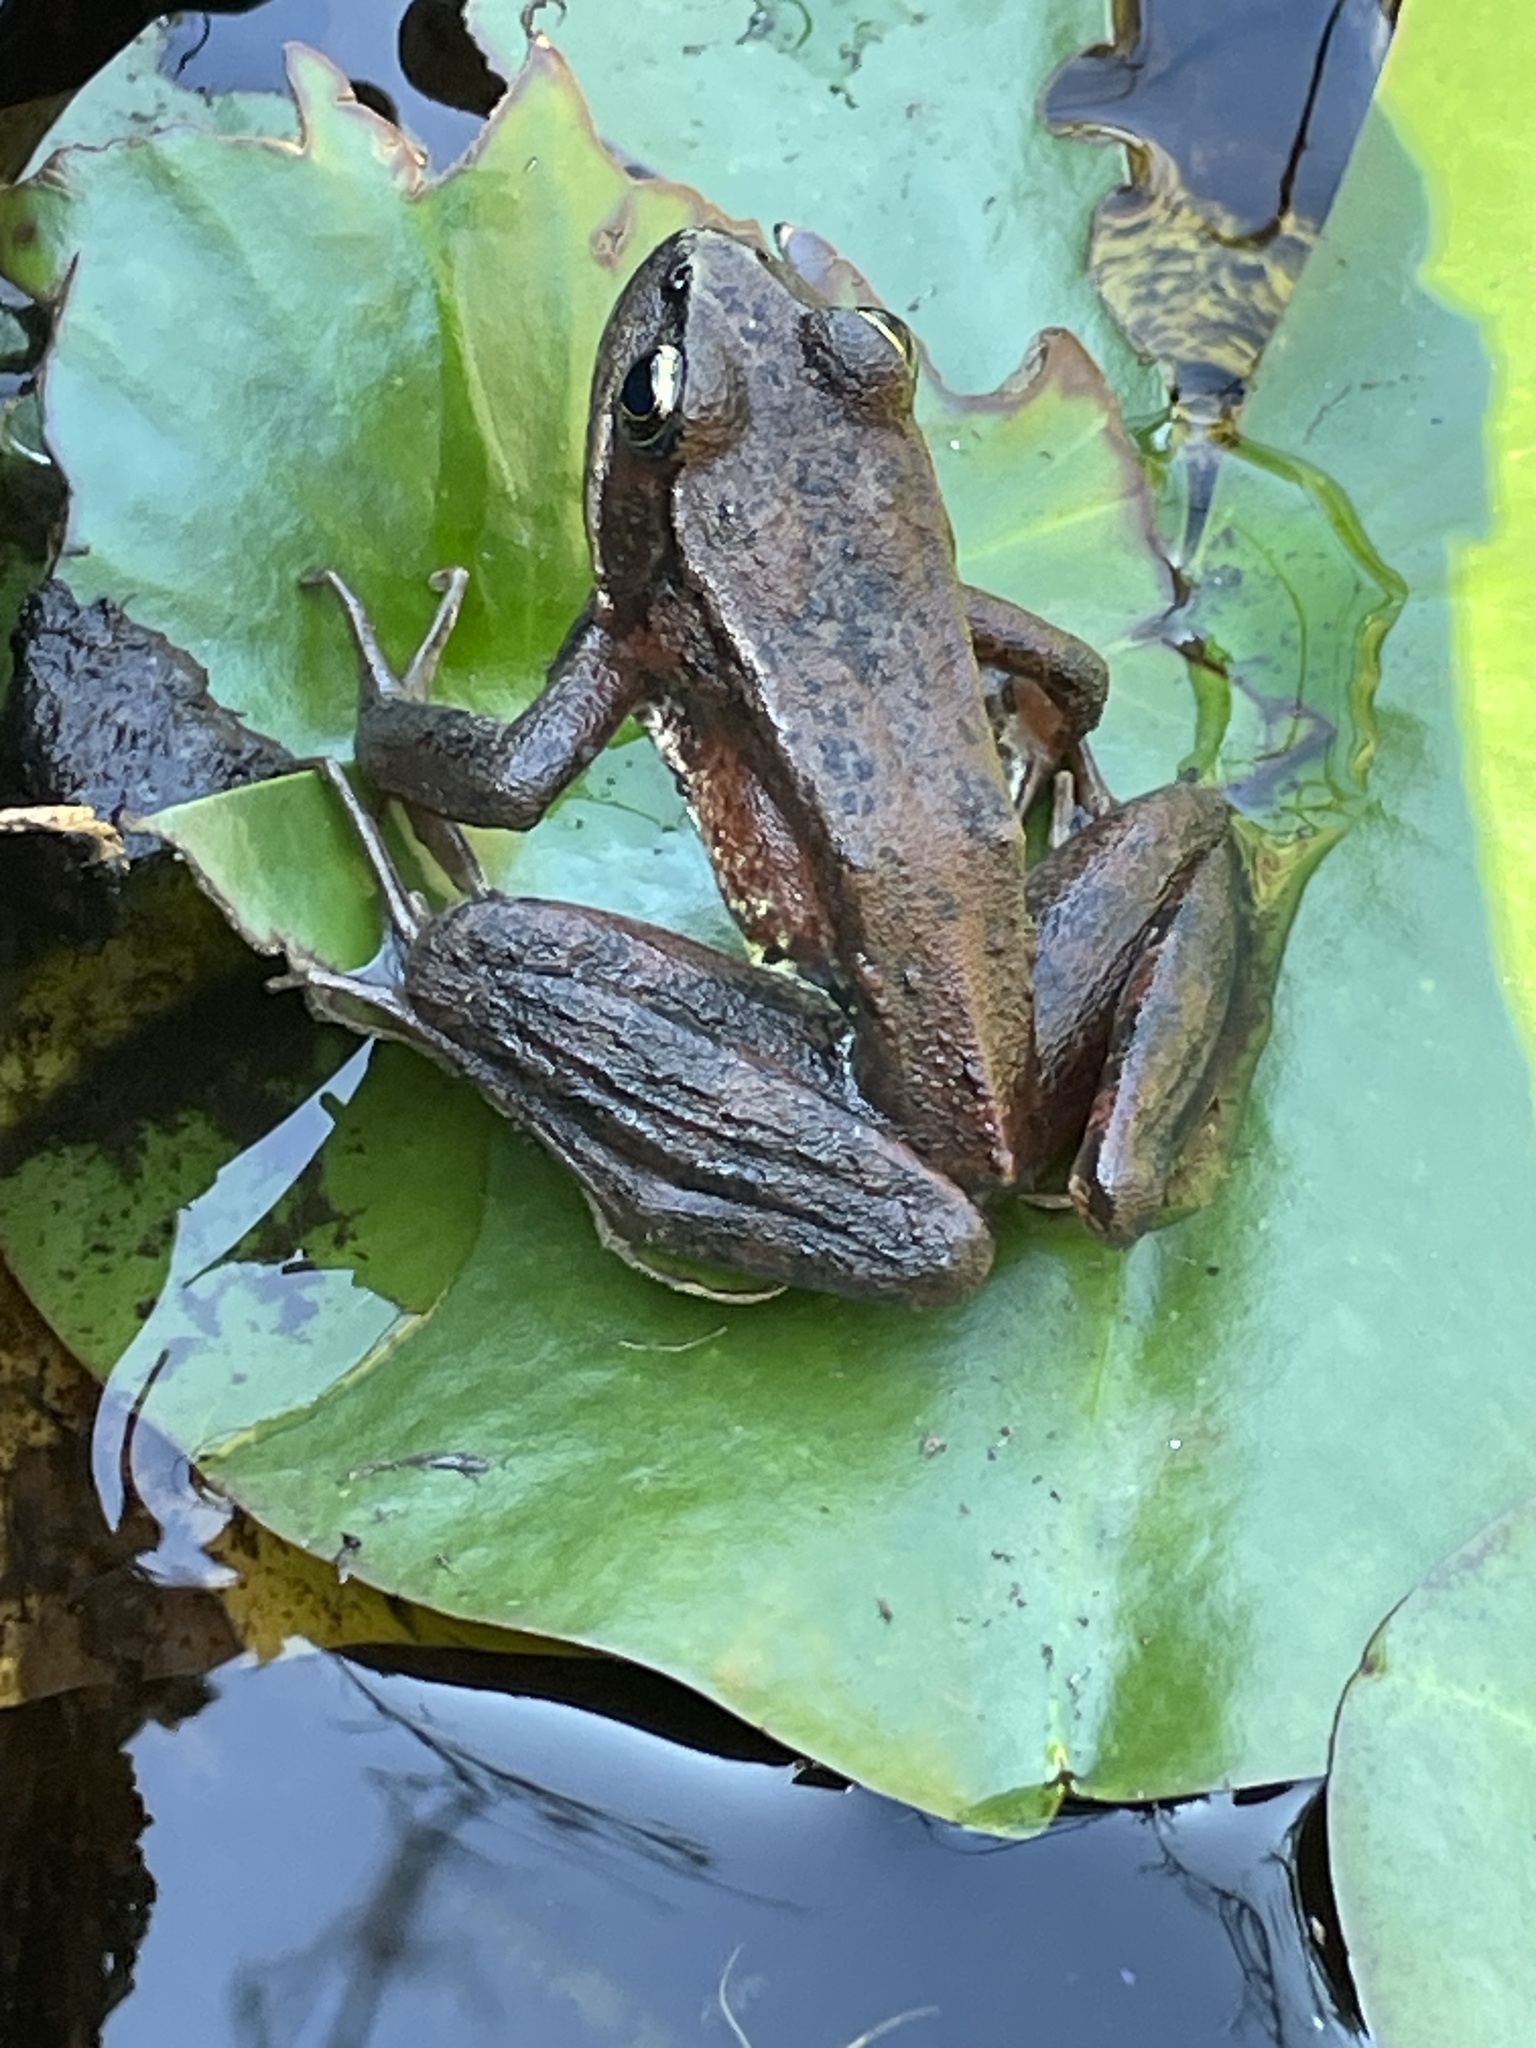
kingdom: Animalia
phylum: Chordata
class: Amphibia
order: Anura
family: Ranidae
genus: Rana
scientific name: Rana aurora
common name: Red-legged frog
